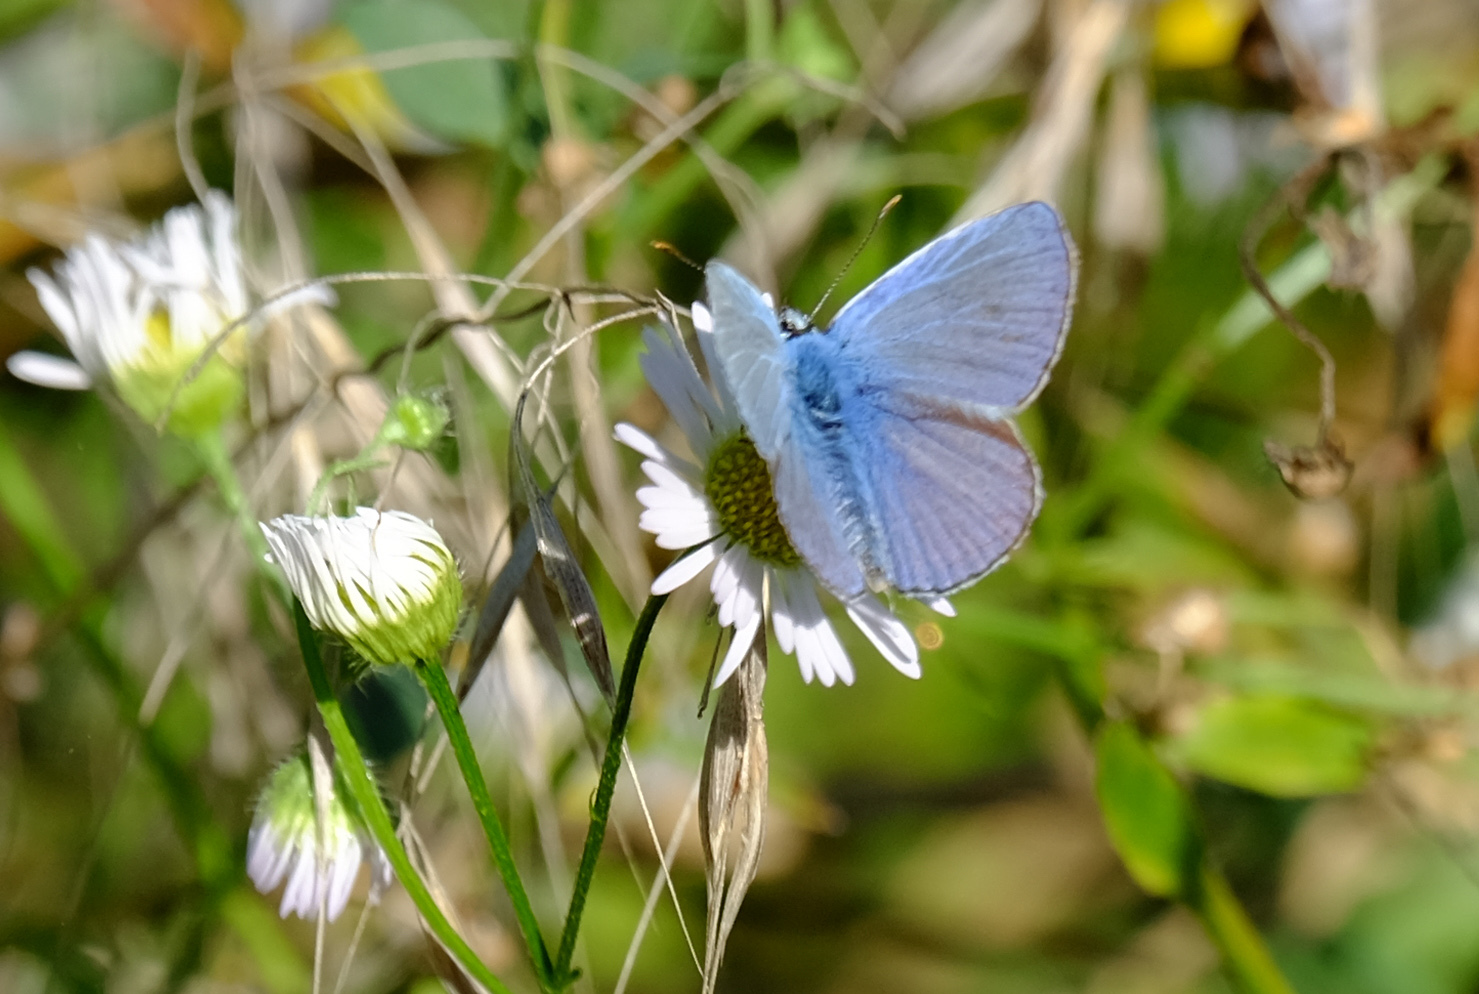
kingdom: Animalia
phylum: Arthropoda
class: Insecta
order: Lepidoptera
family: Lycaenidae
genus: Polyommatus
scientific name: Polyommatus icarus
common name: Common blue
